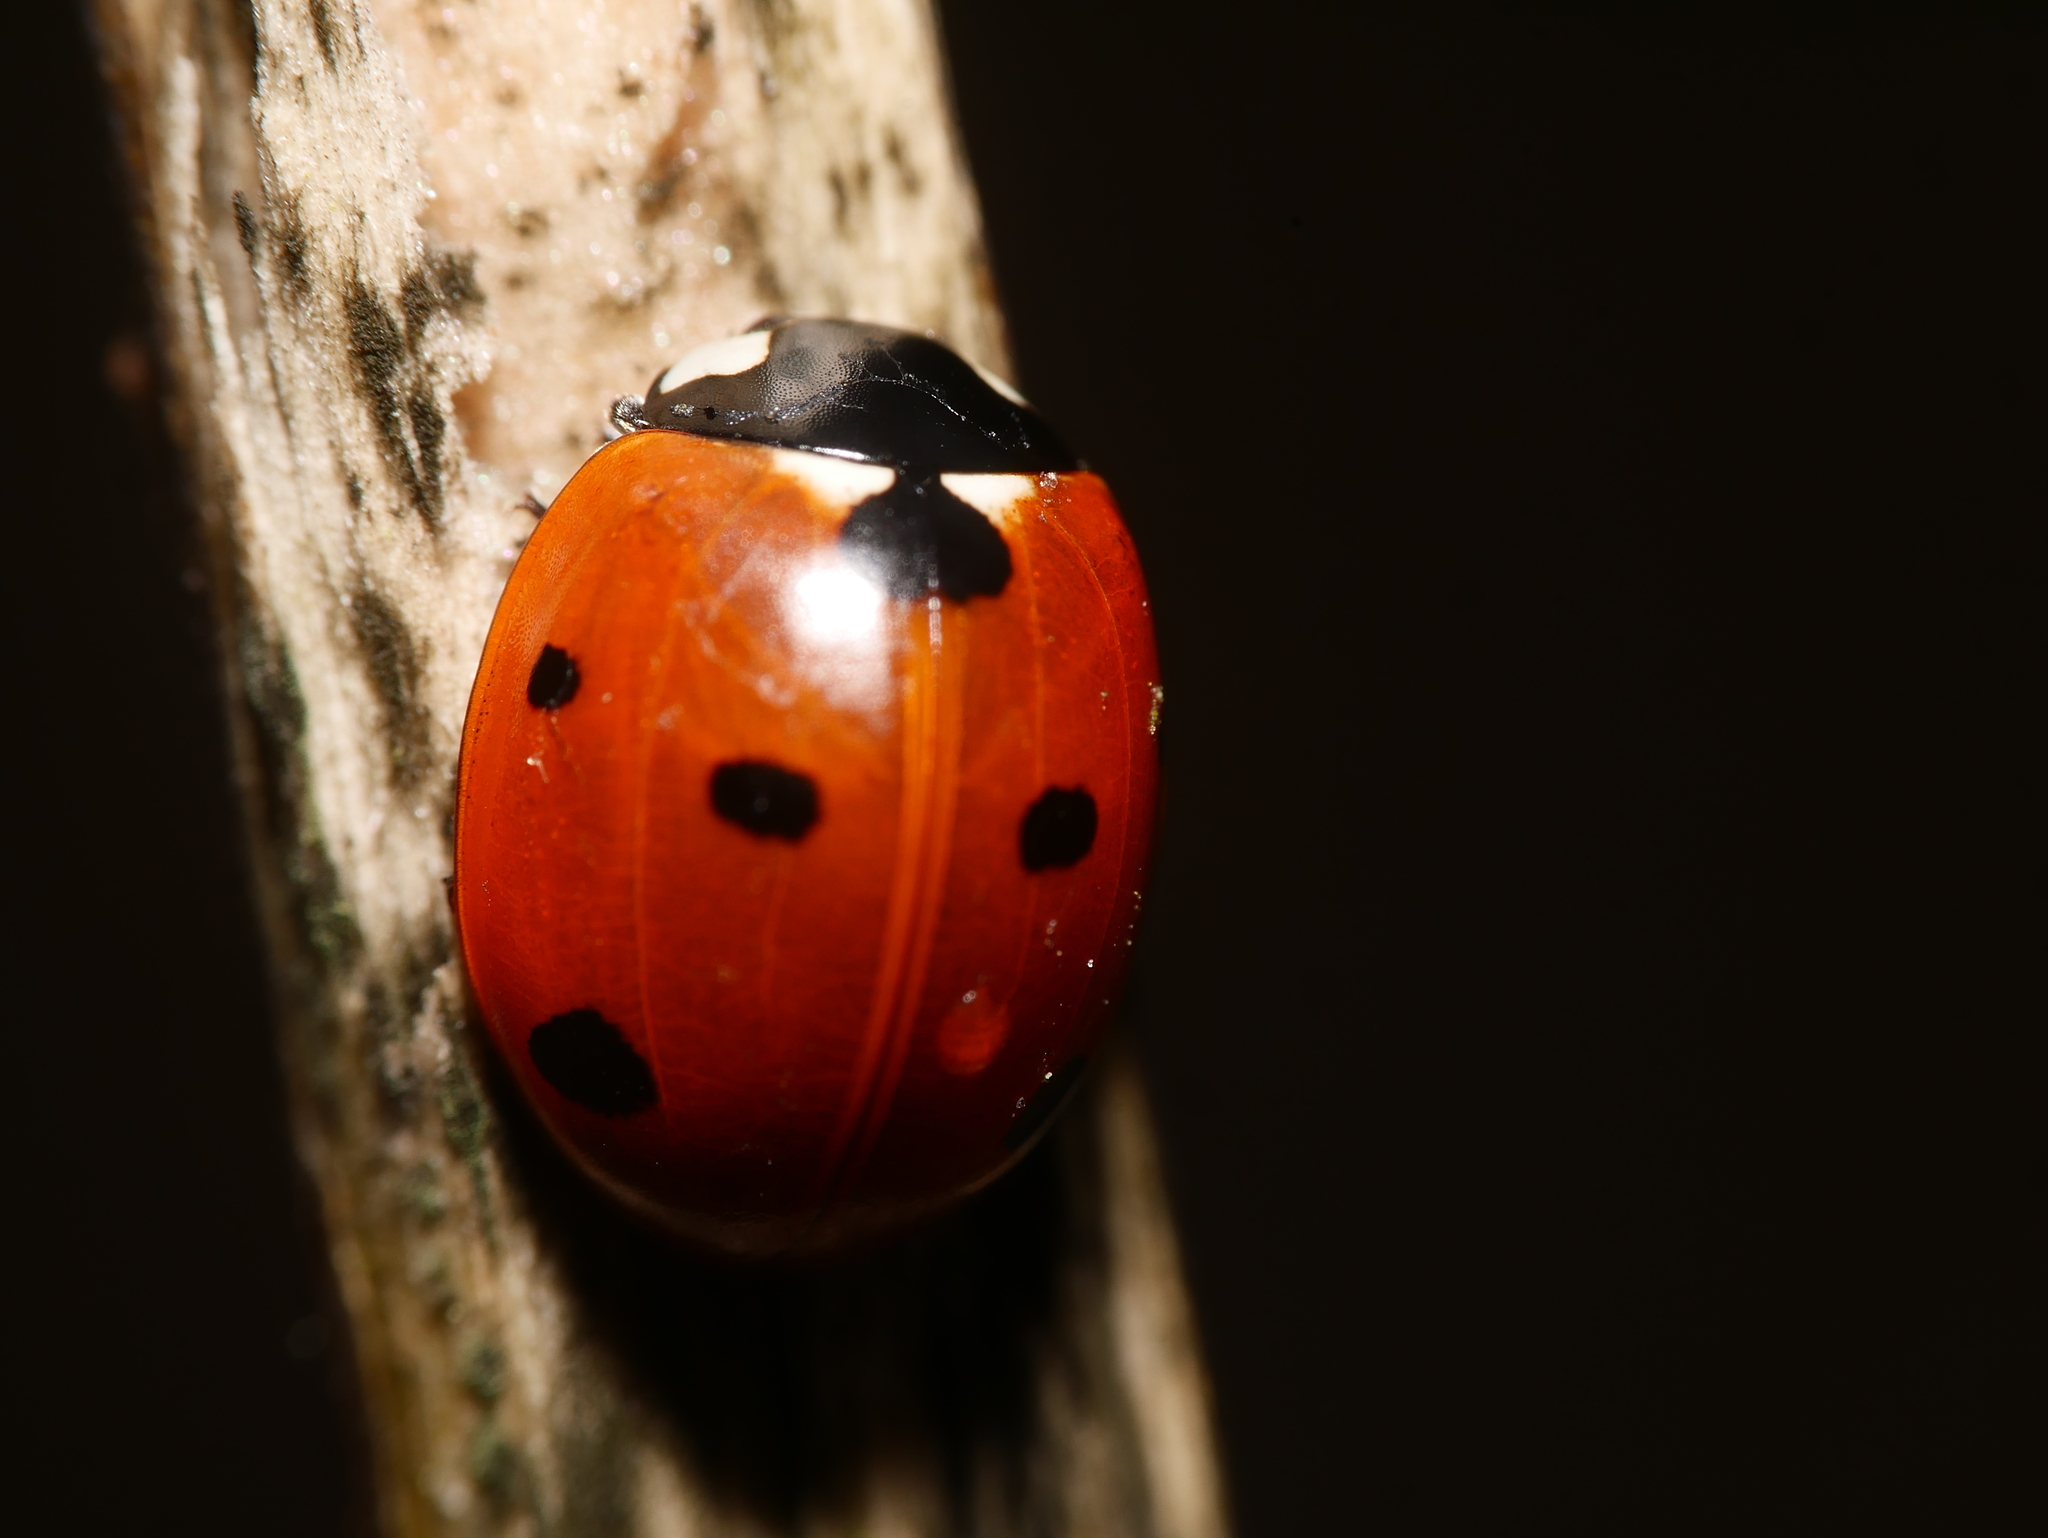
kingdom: Animalia
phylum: Arthropoda
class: Insecta
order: Coleoptera
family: Coccinellidae
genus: Coccinella
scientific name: Coccinella septempunctata
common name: Sevenspotted lady beetle
